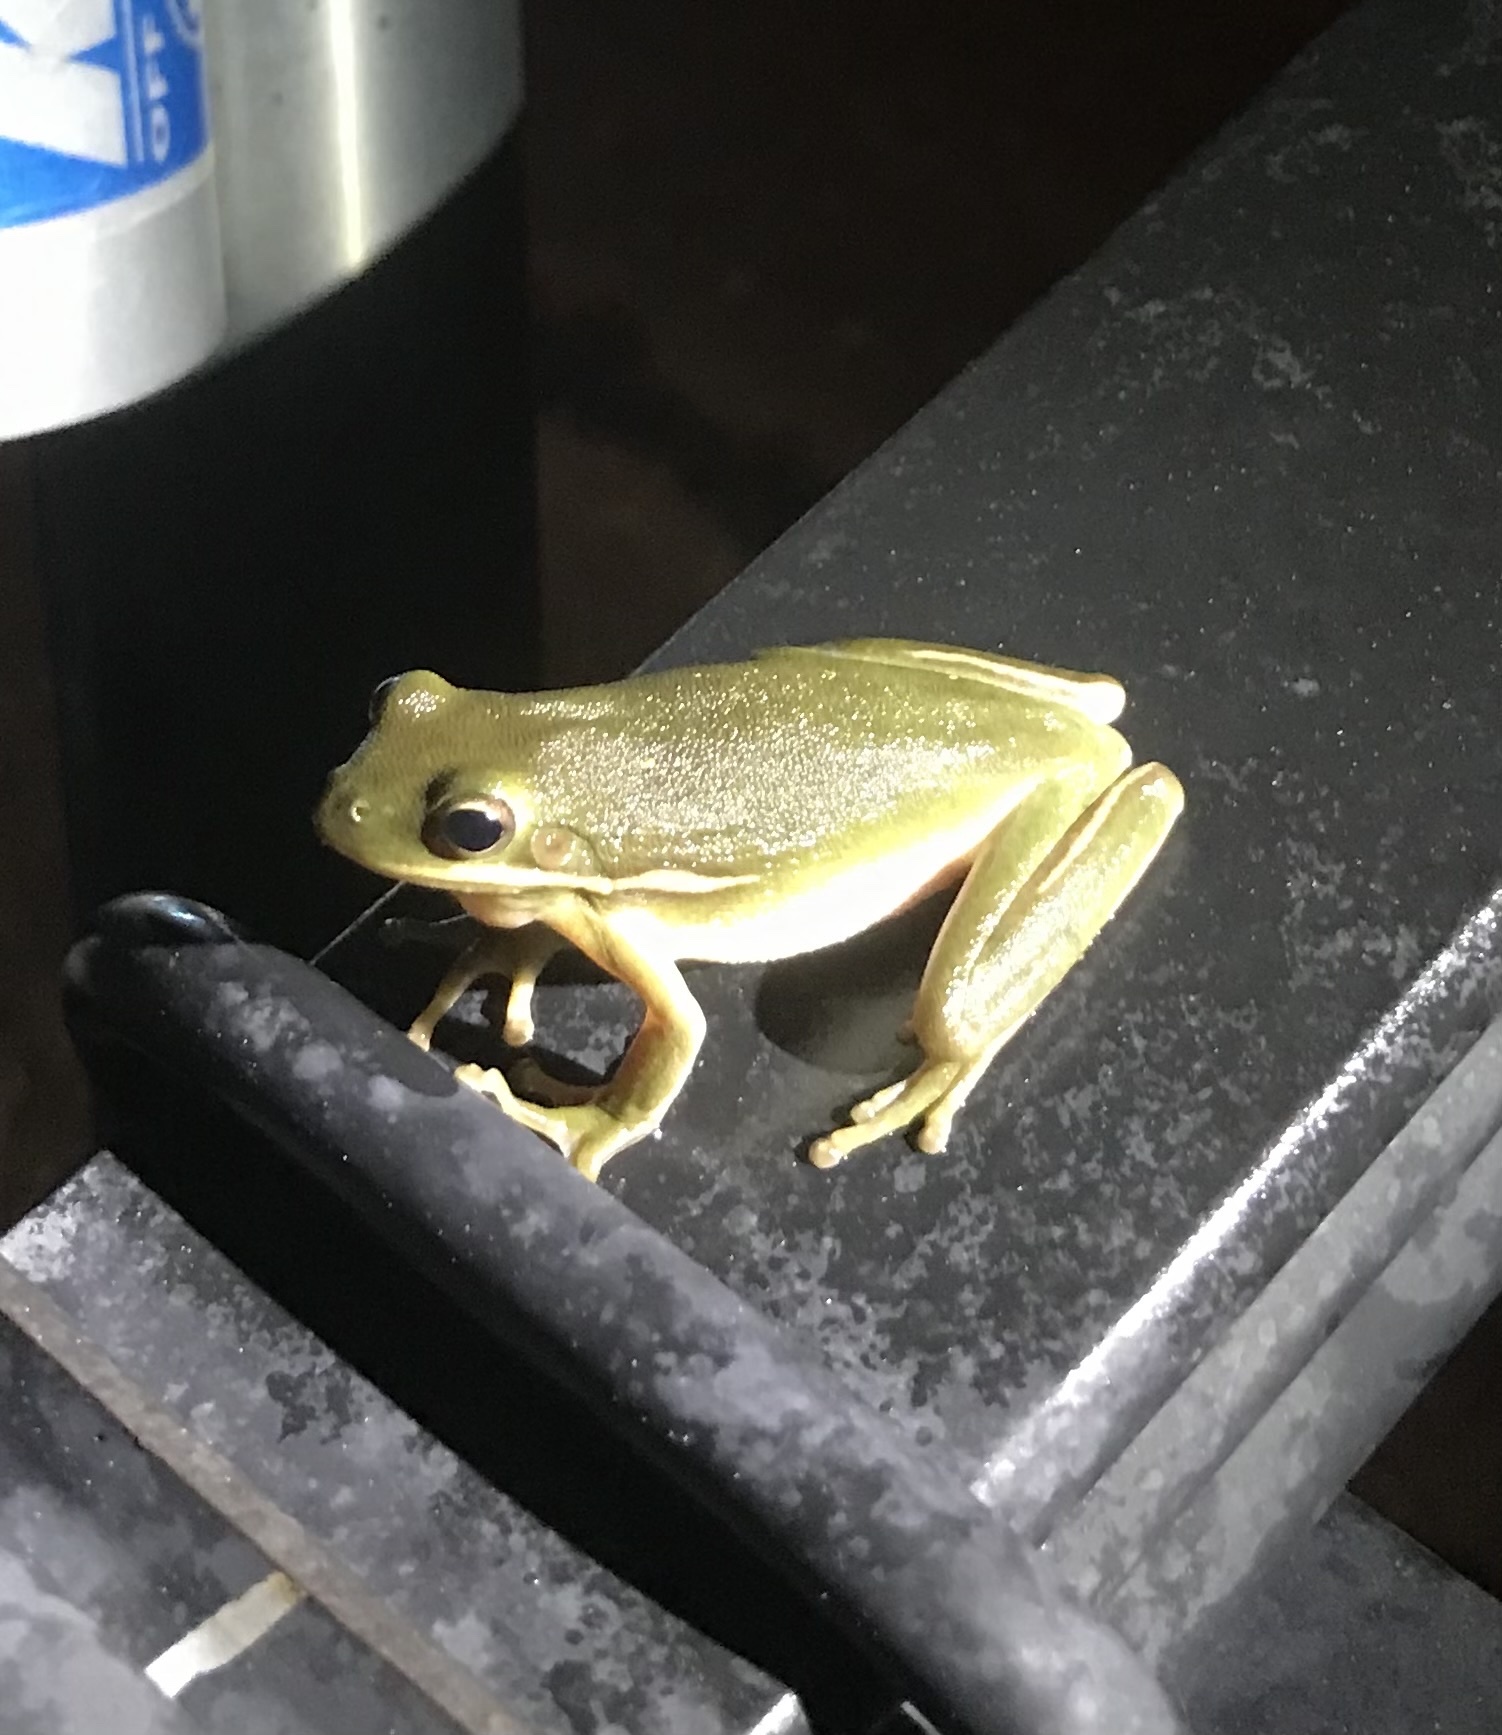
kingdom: Animalia
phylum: Chordata
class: Amphibia
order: Anura
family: Hylidae
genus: Dryophytes
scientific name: Dryophytes cinereus
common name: Green treefrog
